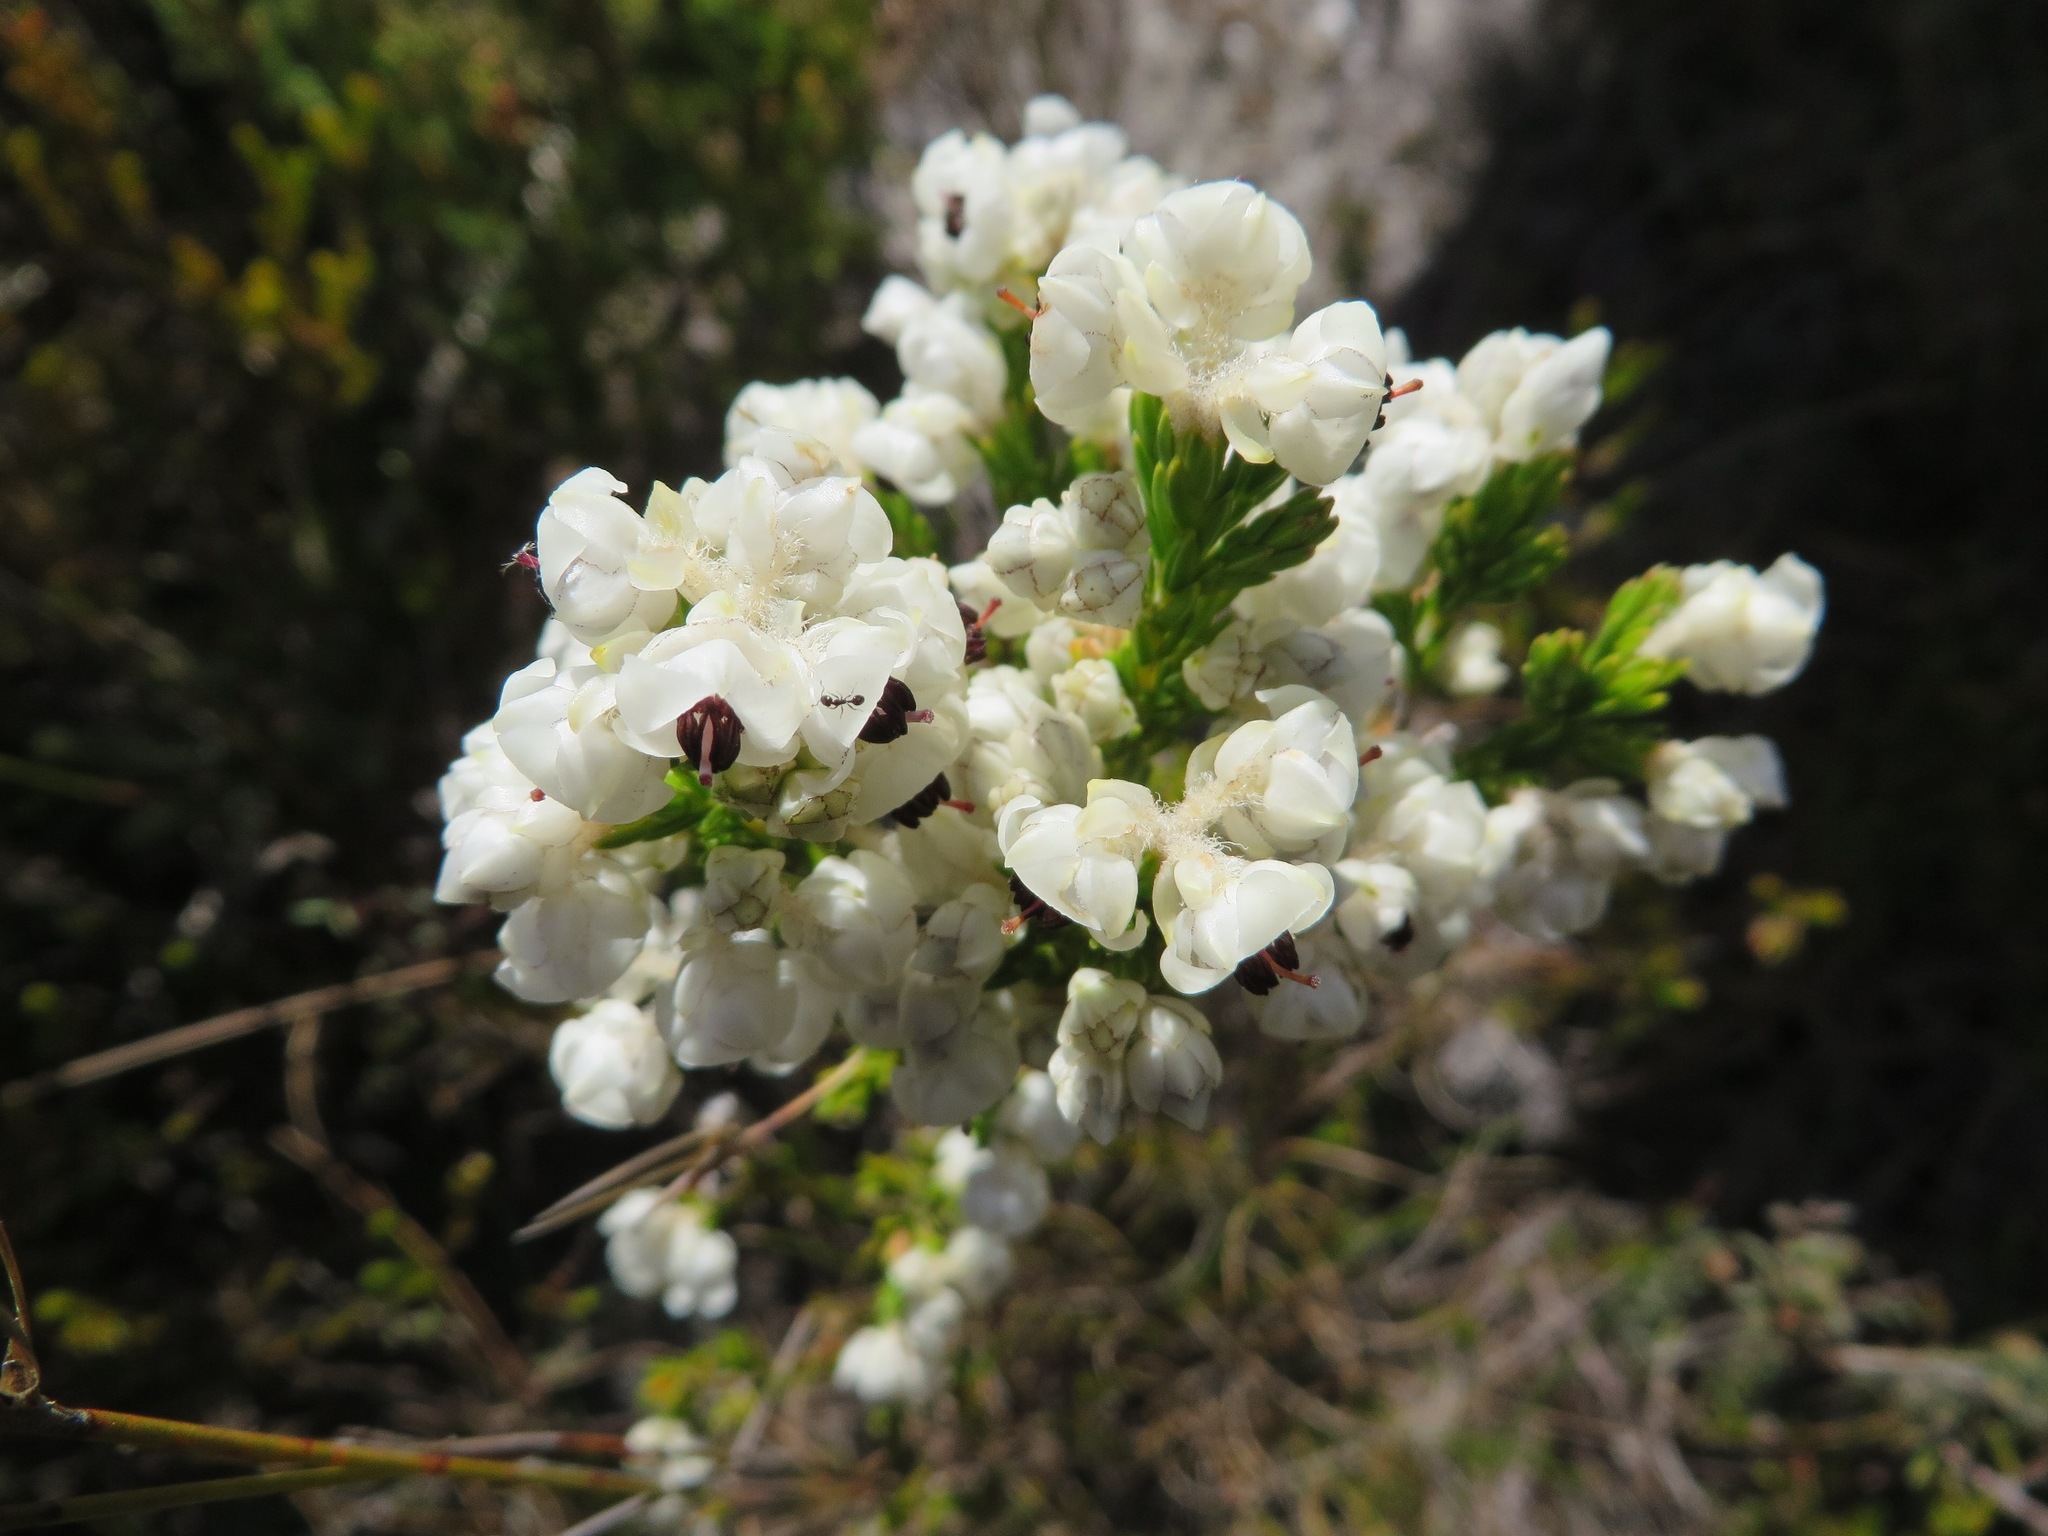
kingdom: Plantae
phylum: Tracheophyta
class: Magnoliopsida
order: Ericales
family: Ericaceae
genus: Erica
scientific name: Erica calycina
